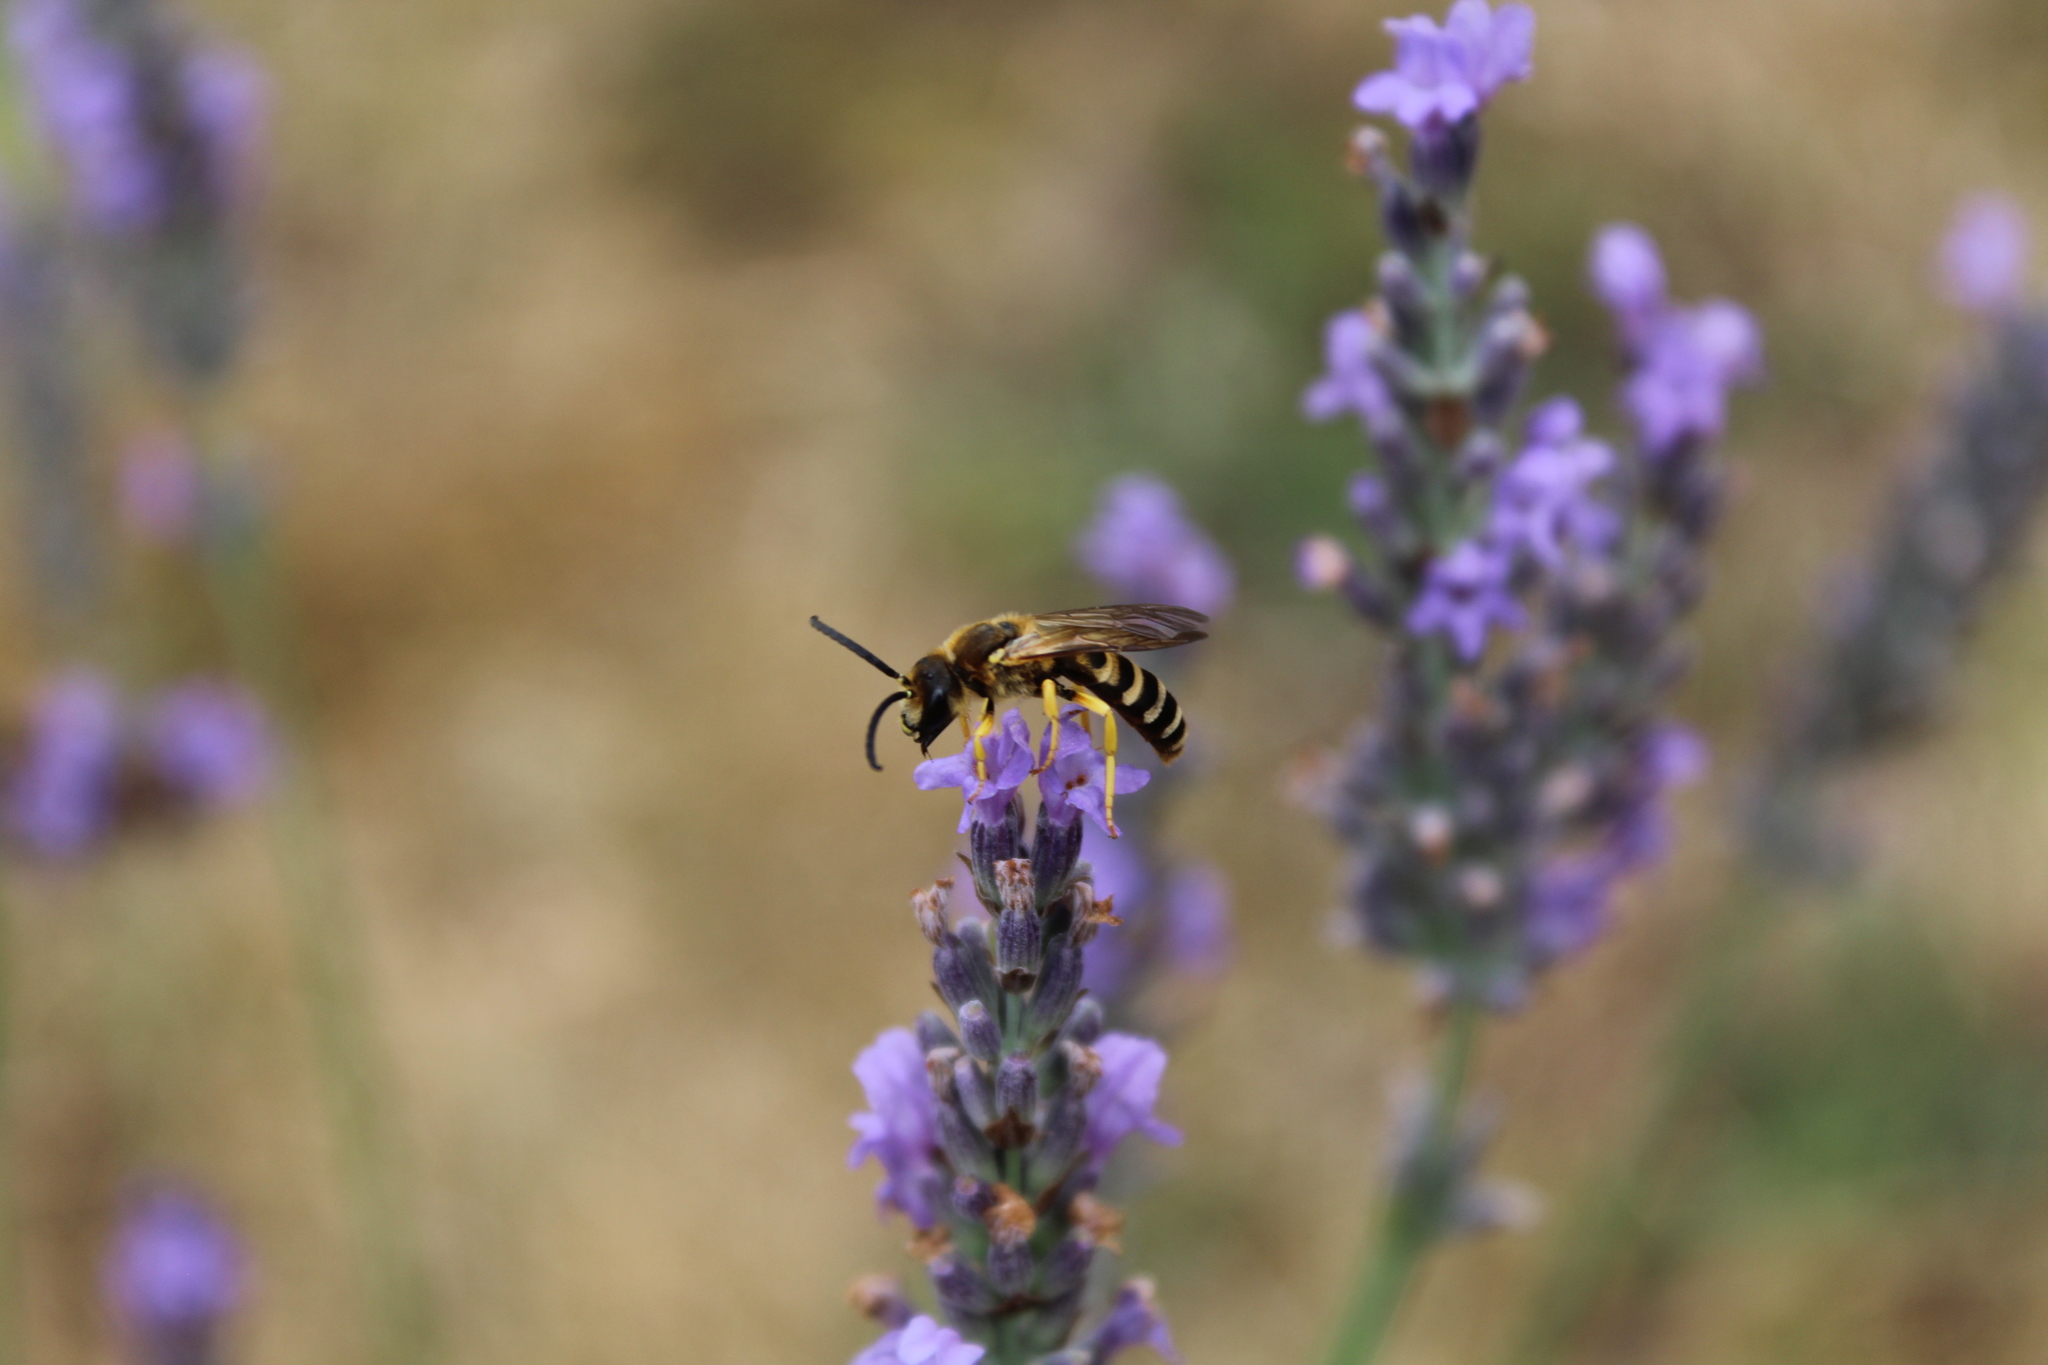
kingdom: Animalia
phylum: Arthropoda
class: Insecta
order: Hymenoptera
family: Halictidae
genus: Halictus
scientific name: Halictus scabiosae
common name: Great banded furrow bee
